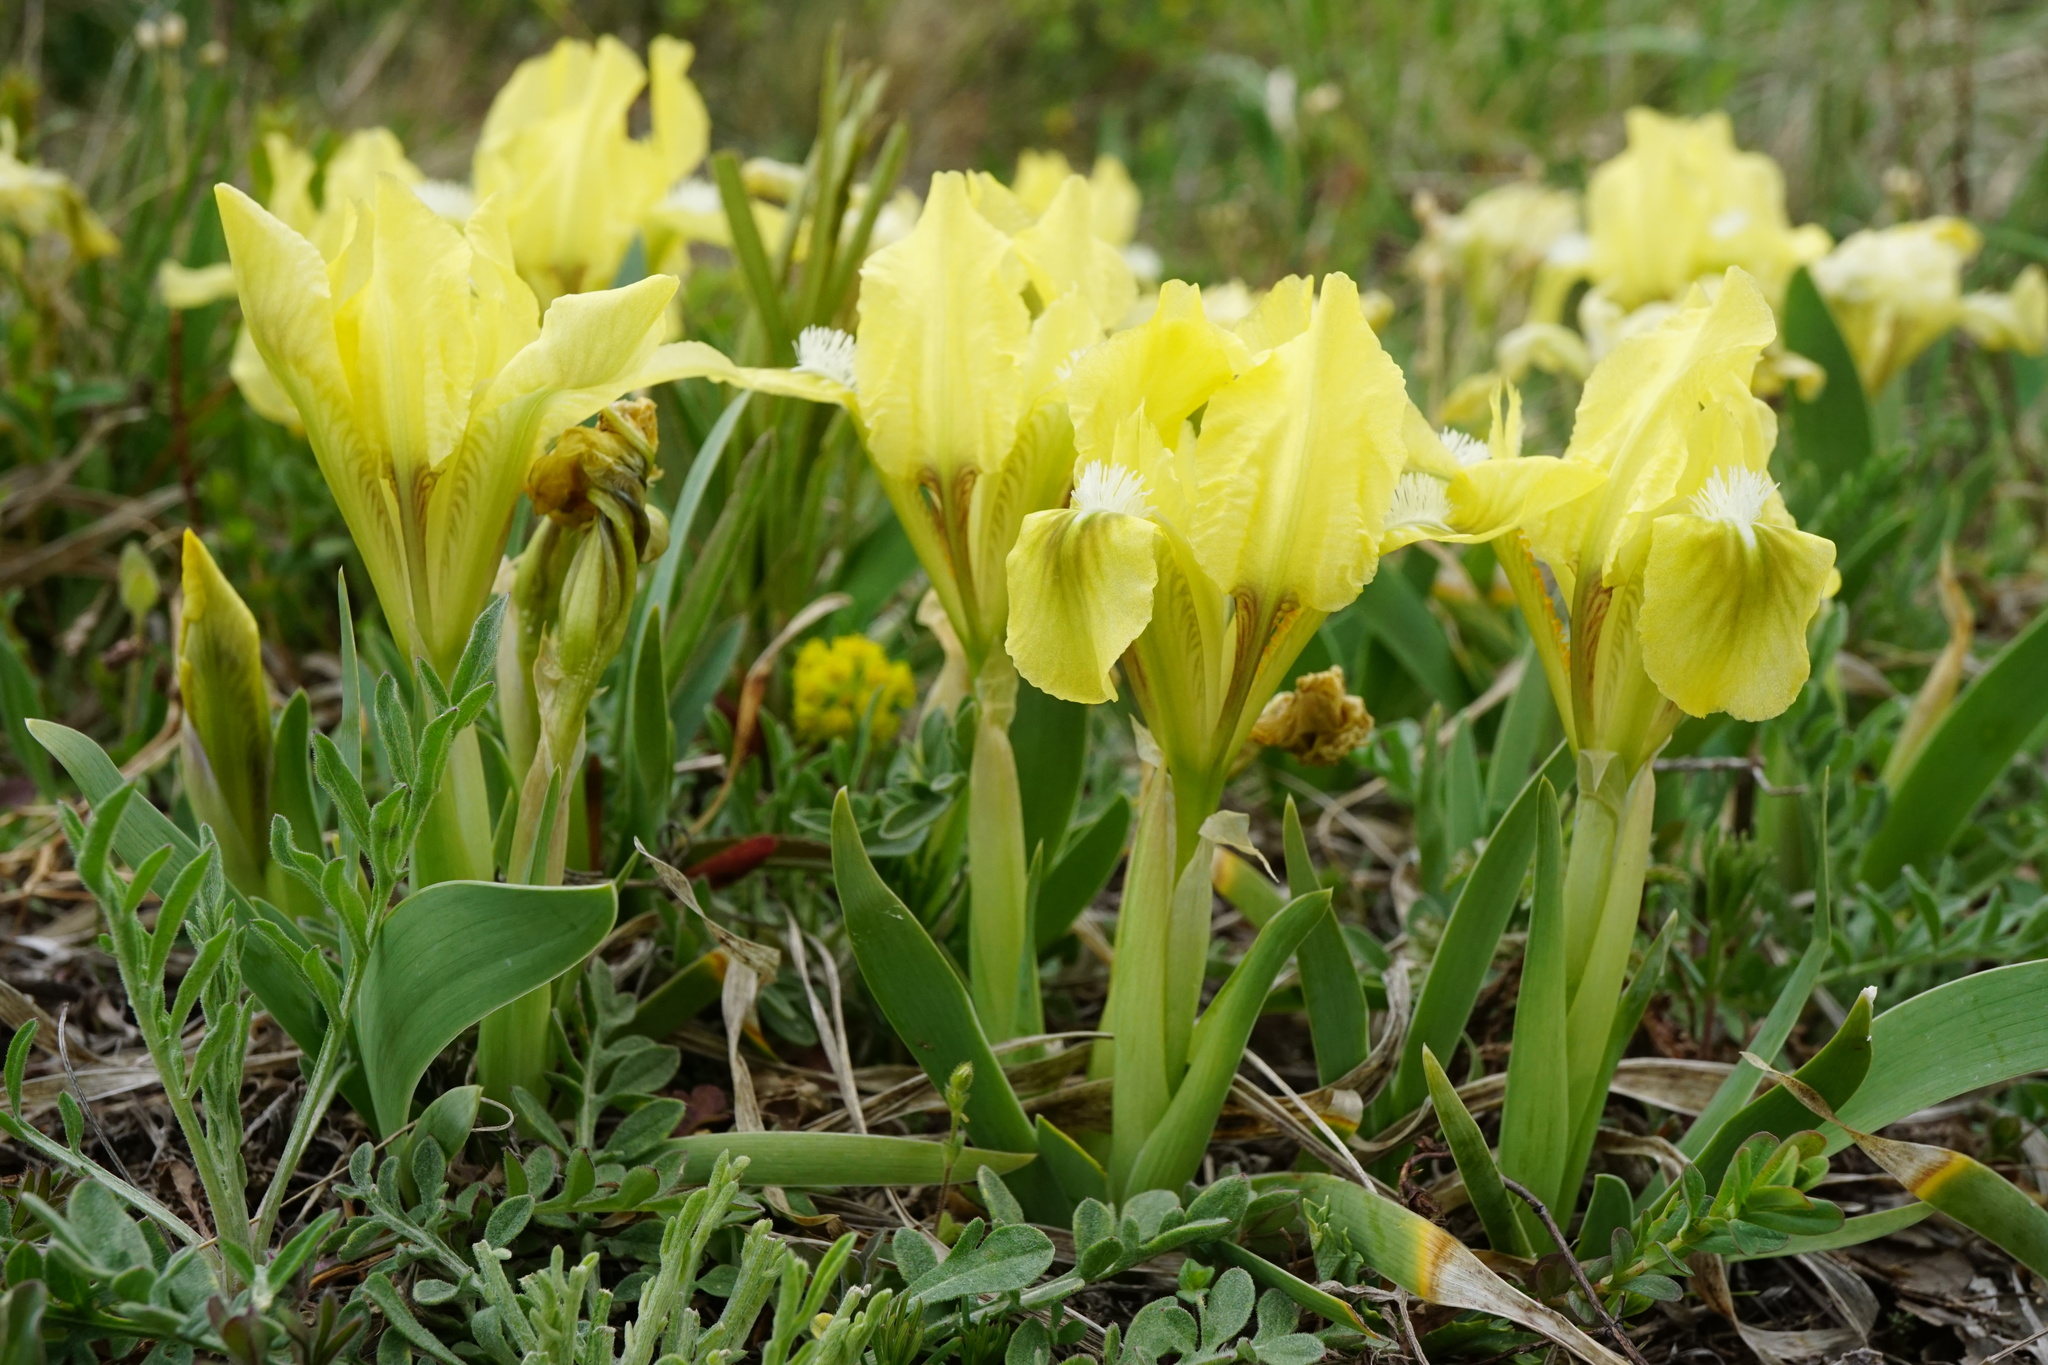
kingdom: Plantae
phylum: Tracheophyta
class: Liliopsida
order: Asparagales
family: Iridaceae
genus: Iris
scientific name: Iris pumila
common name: Dwarf iris
